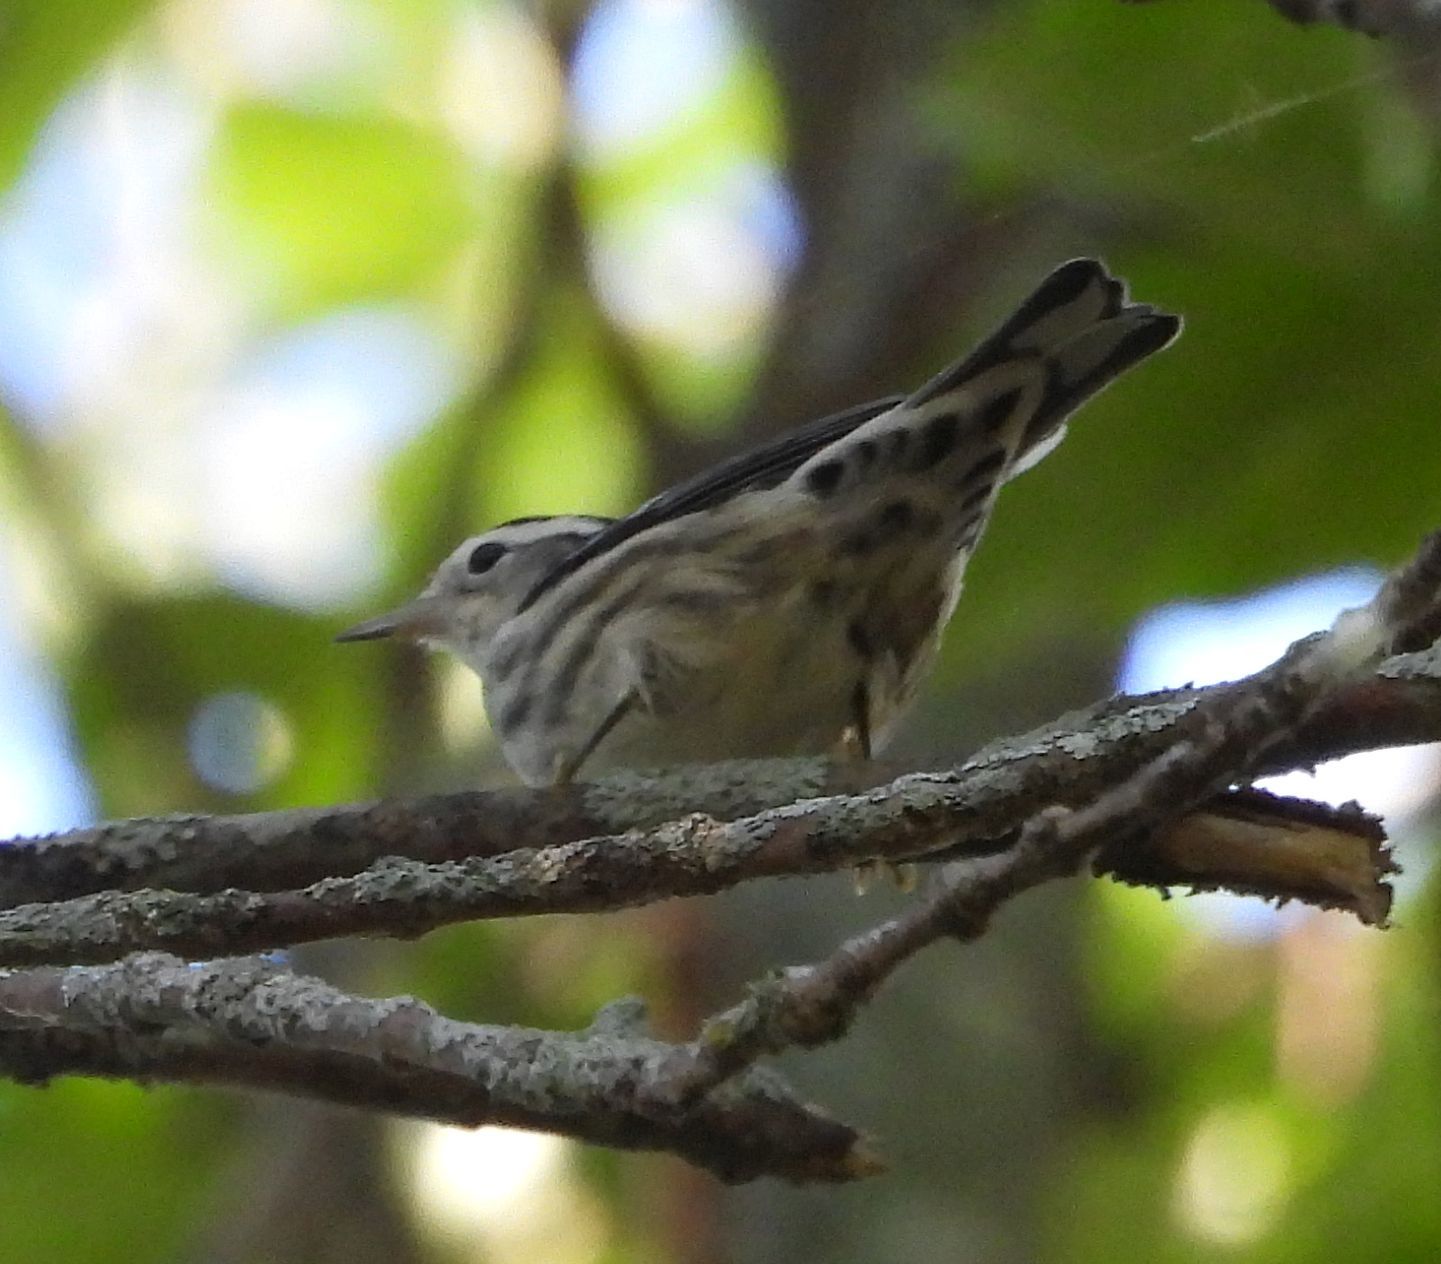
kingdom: Animalia
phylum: Chordata
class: Aves
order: Passeriformes
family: Parulidae
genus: Mniotilta
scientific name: Mniotilta varia
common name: Black-and-white warbler
